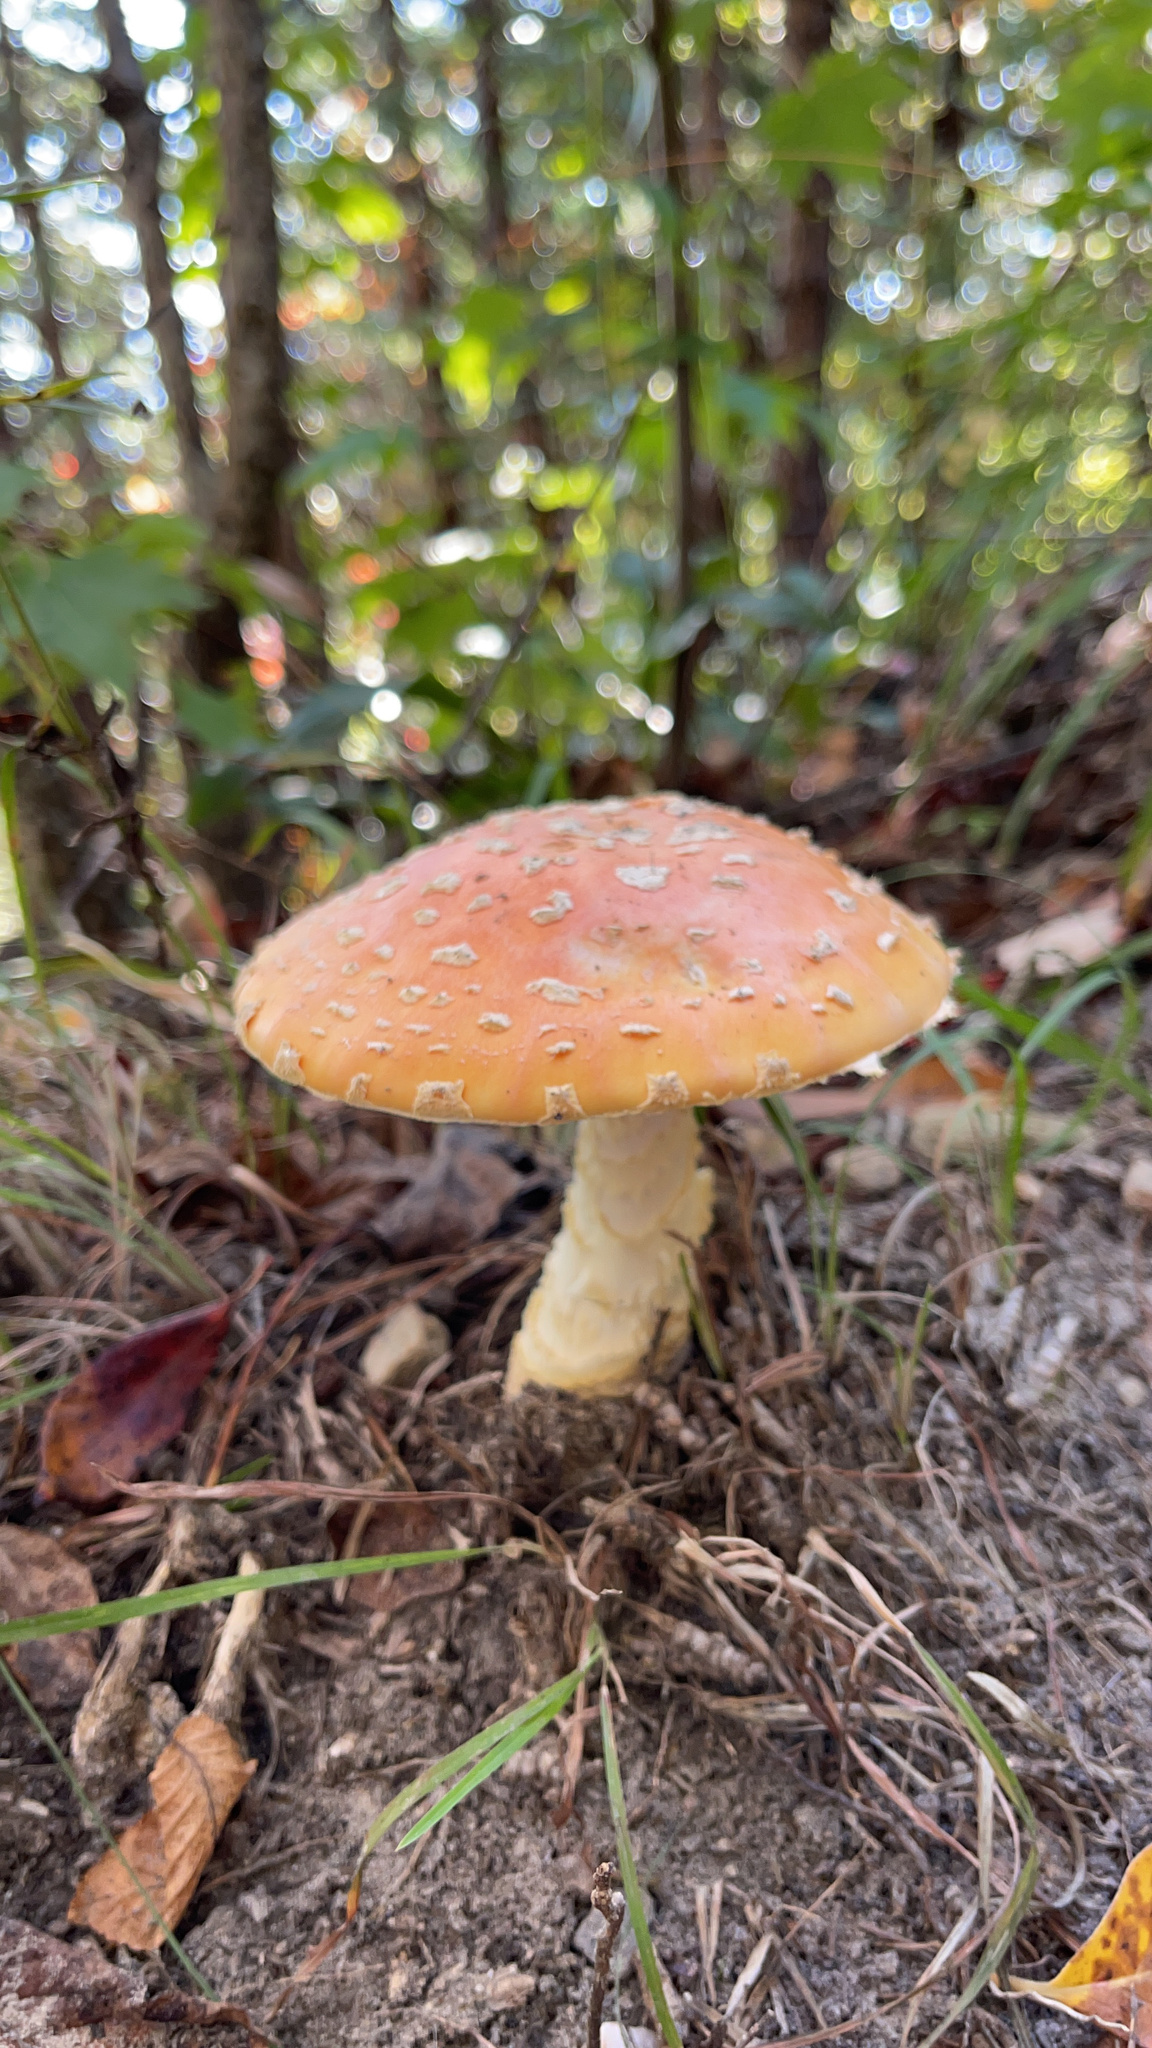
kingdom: Fungi
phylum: Basidiomycota
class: Agaricomycetes
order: Agaricales
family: Amanitaceae
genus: Amanita
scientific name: Amanita persicina
